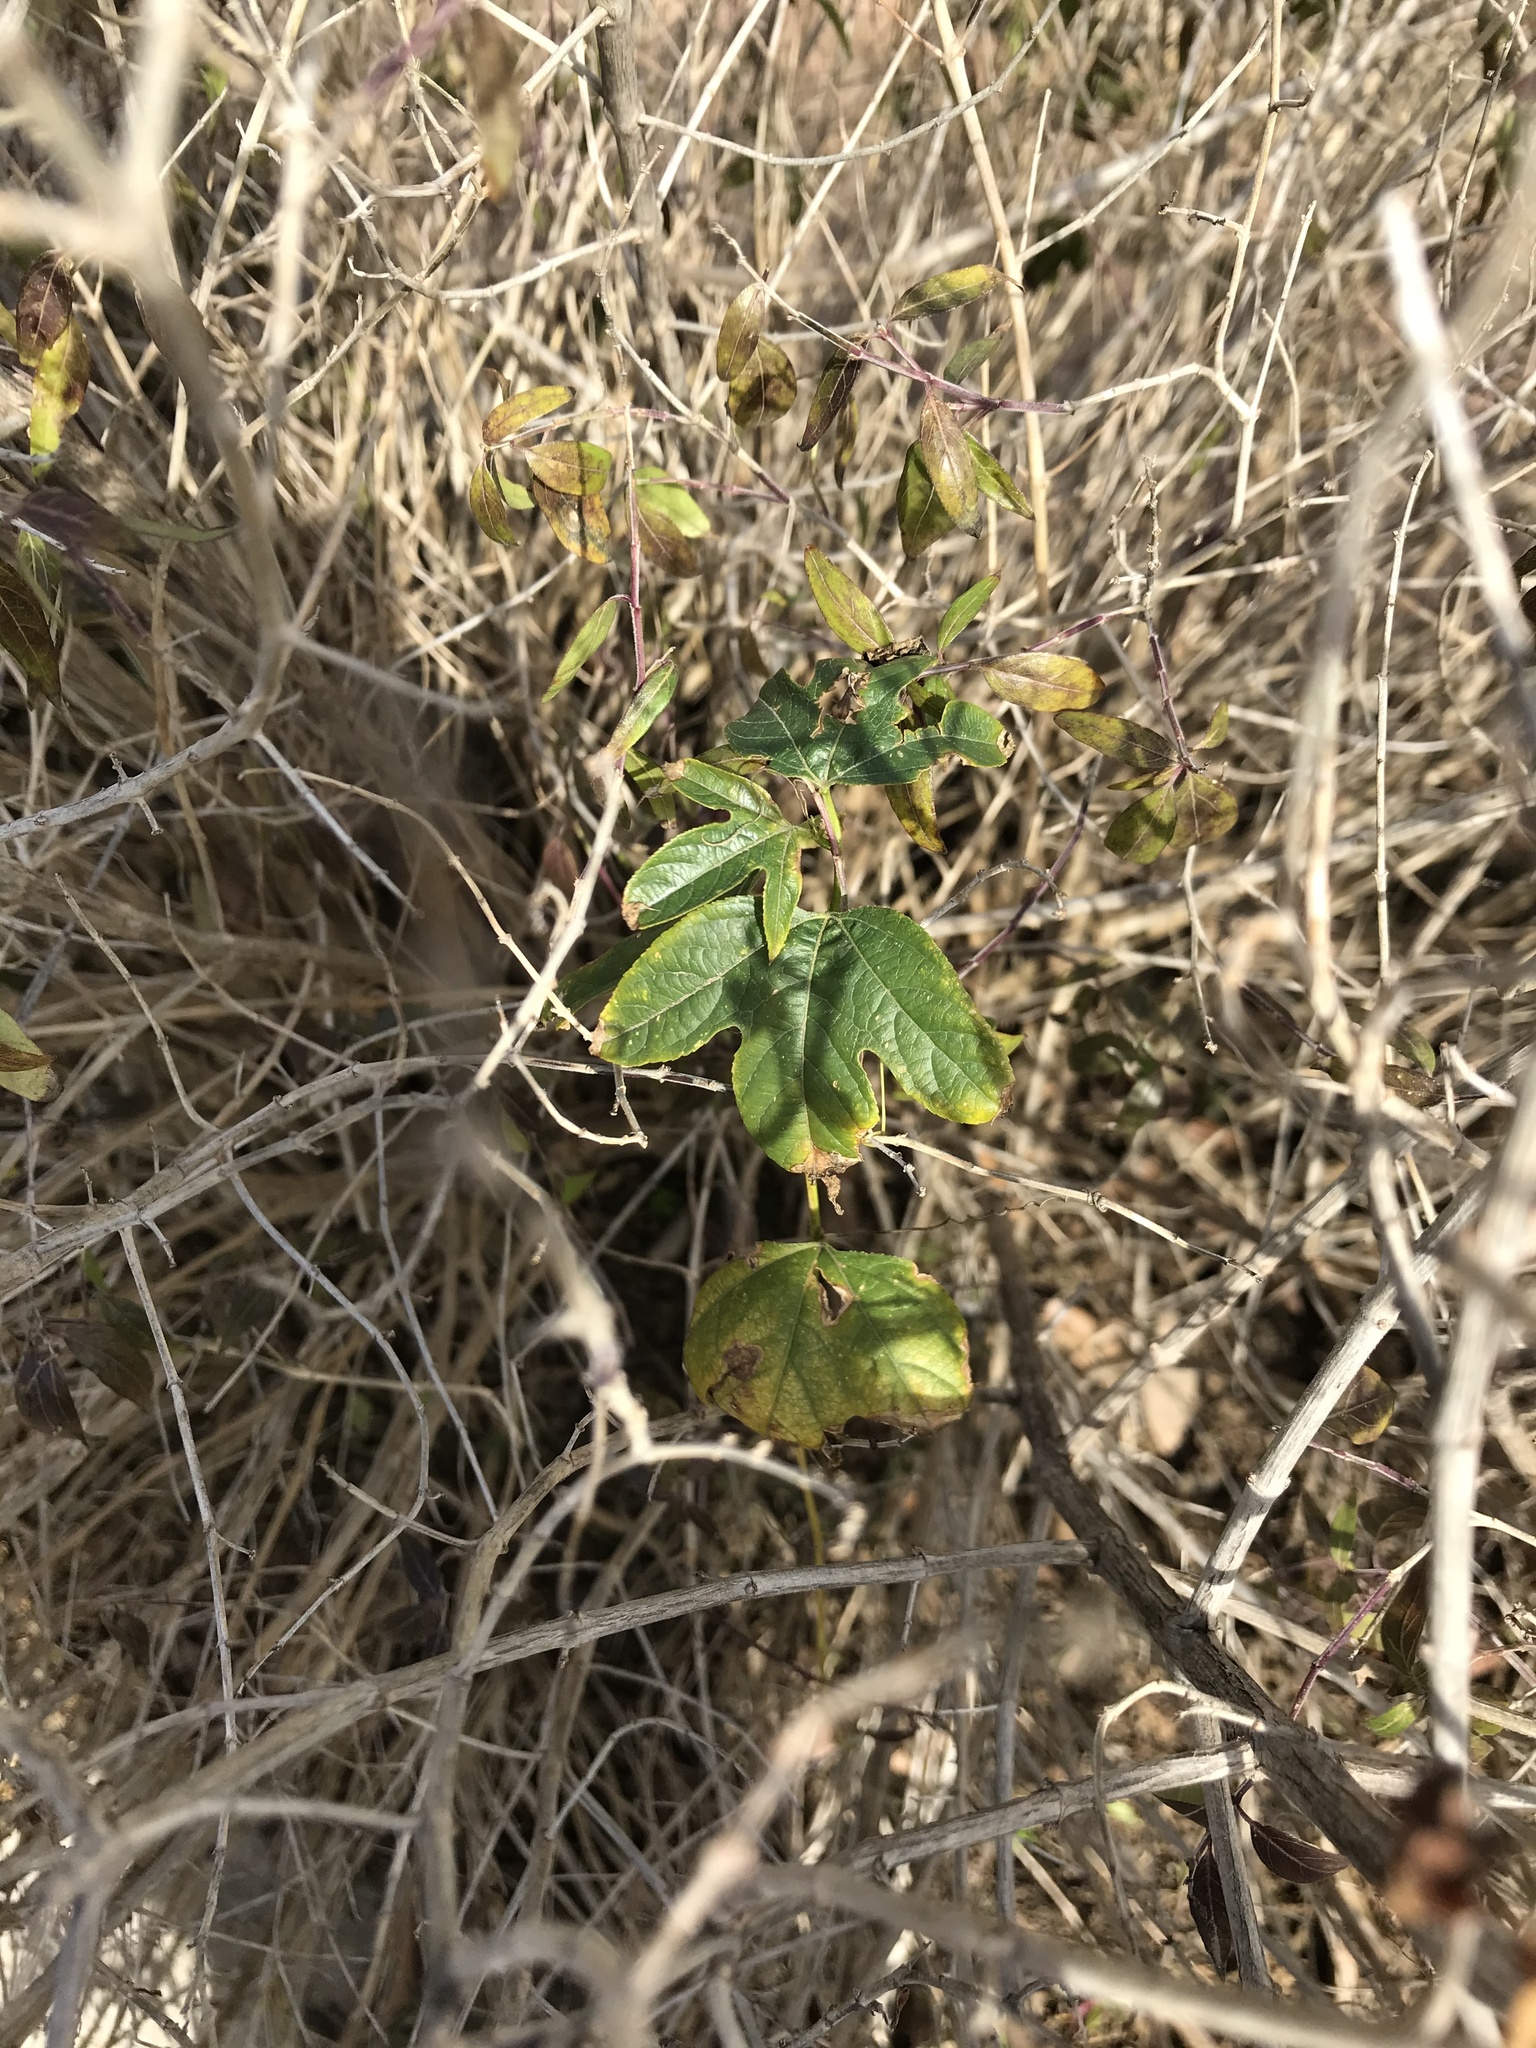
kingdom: Plantae
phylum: Tracheophyta
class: Magnoliopsida
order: Malpighiales
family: Passifloraceae
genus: Passiflora
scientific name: Passiflora incarnata
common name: Apricot-vine
